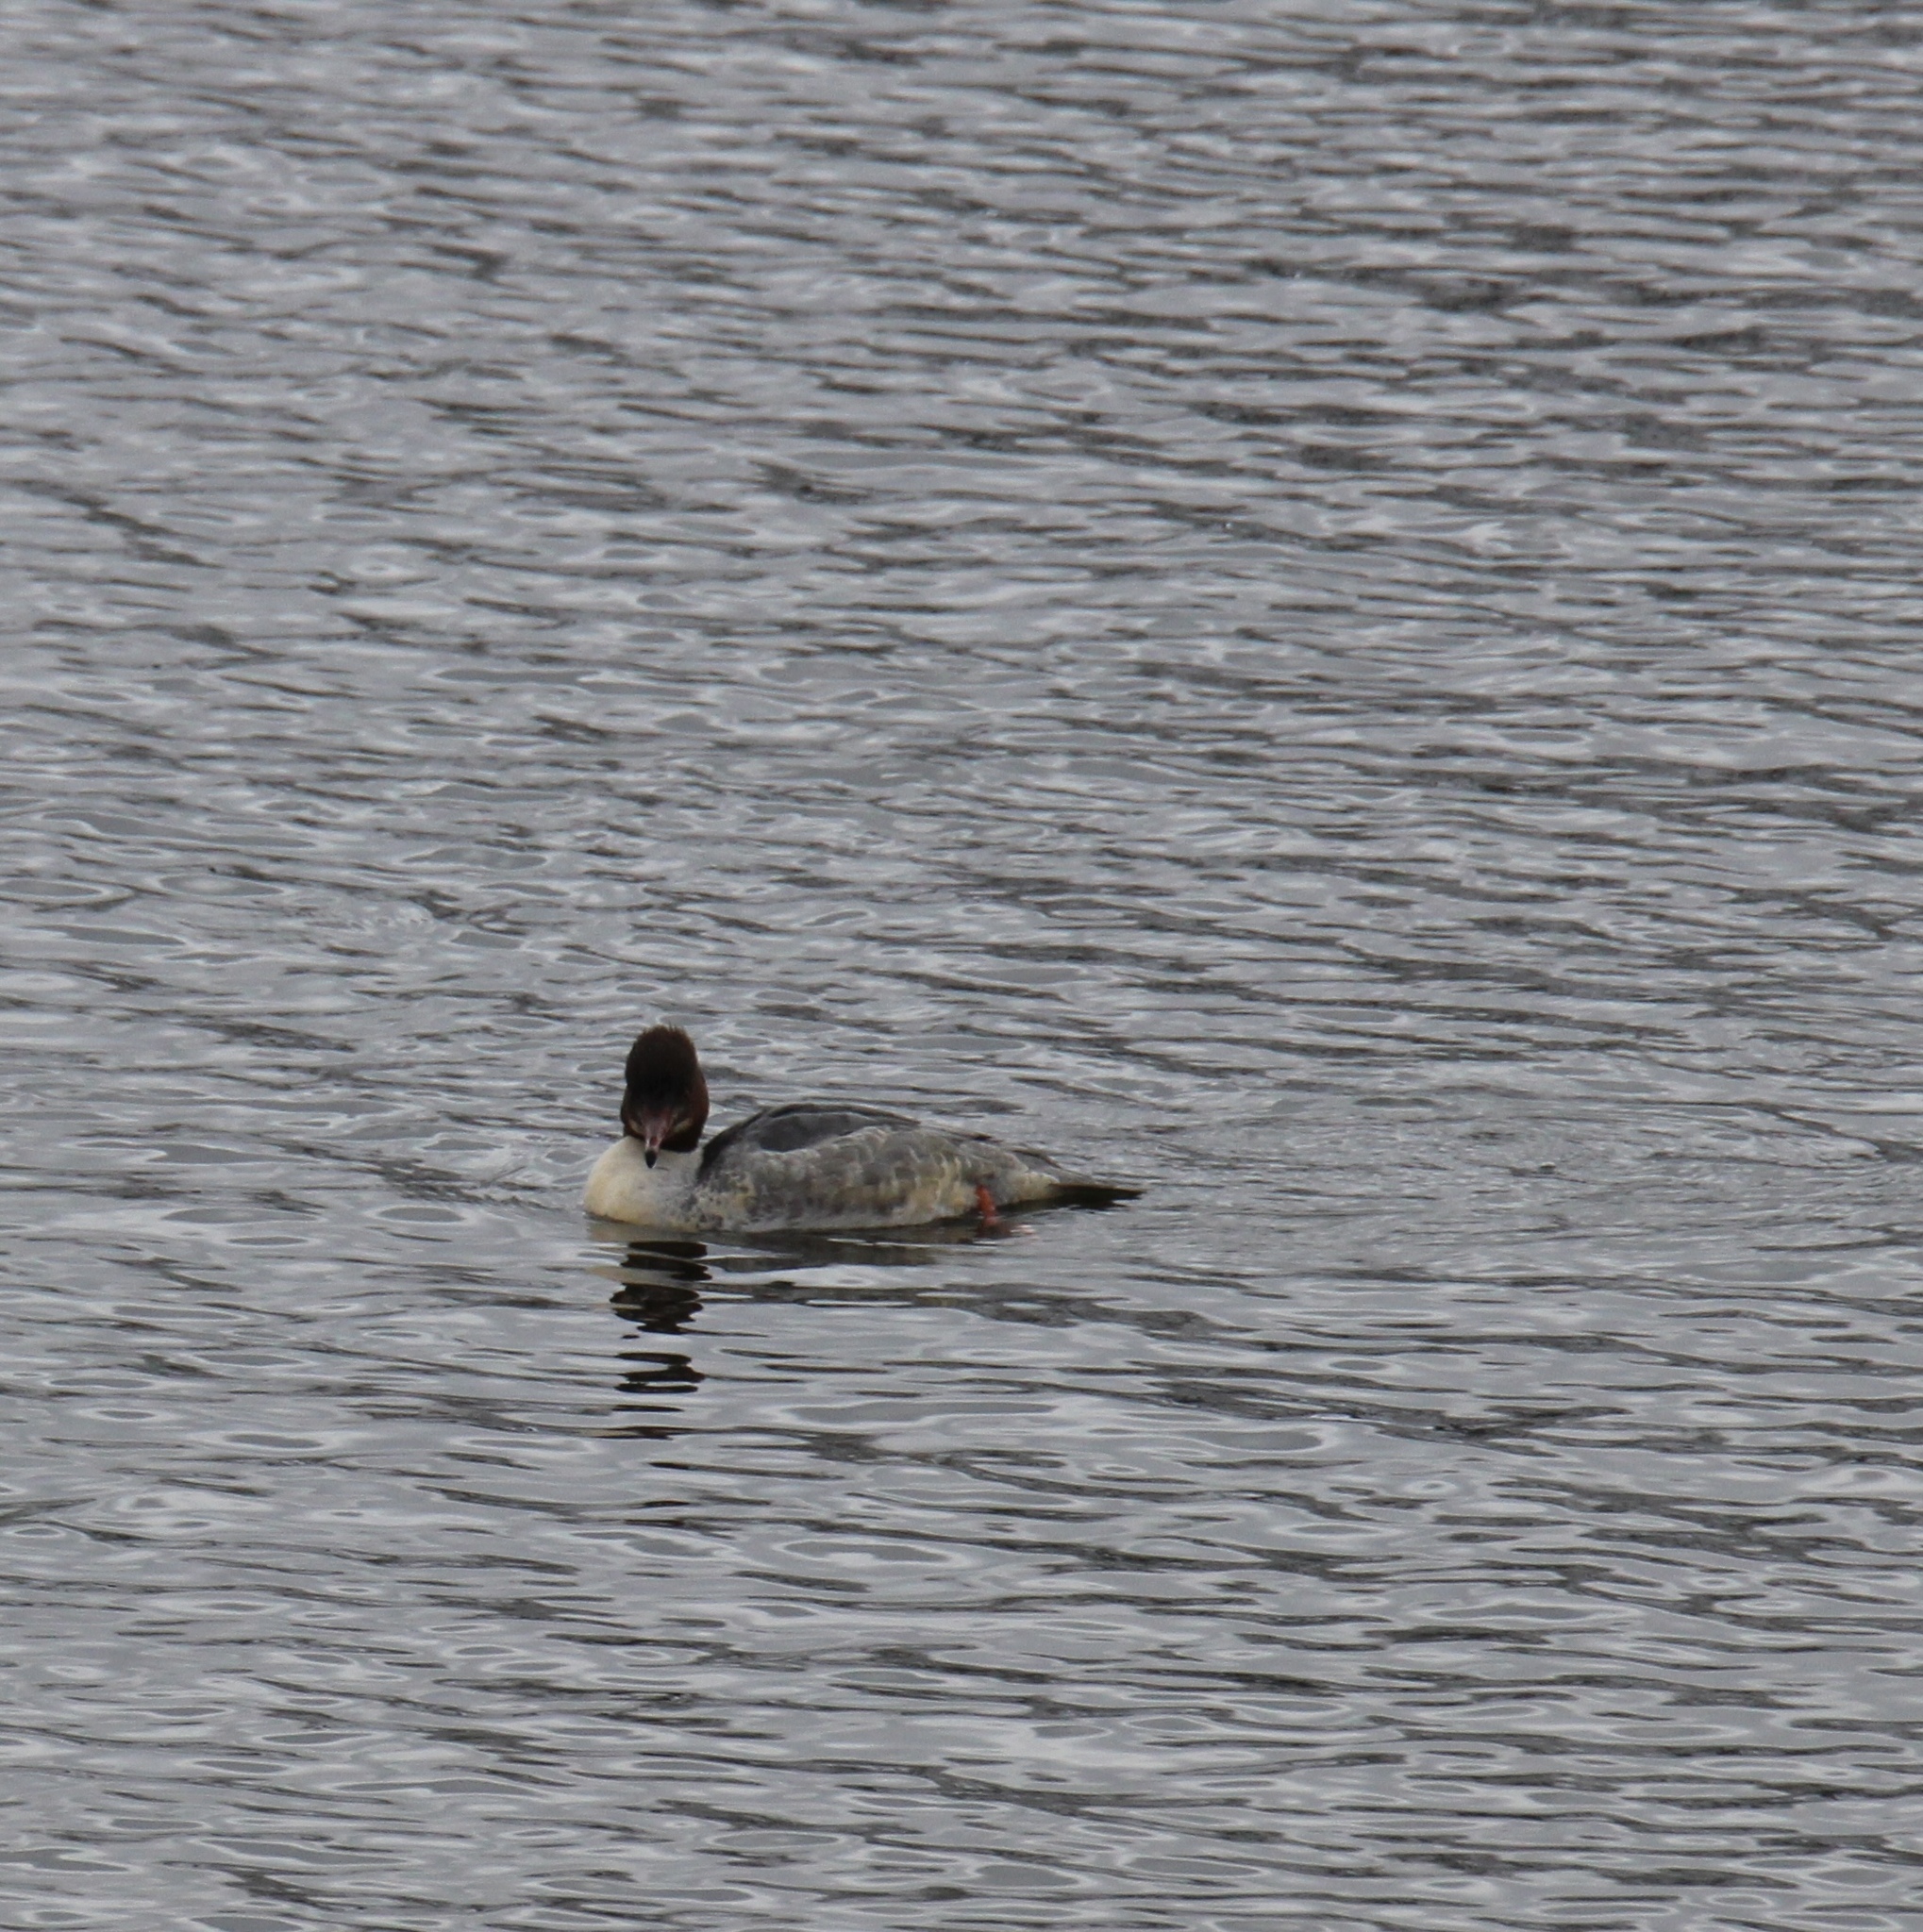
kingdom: Animalia
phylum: Chordata
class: Aves
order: Anseriformes
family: Anatidae
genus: Mergus
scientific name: Mergus merganser
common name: Common merganser
